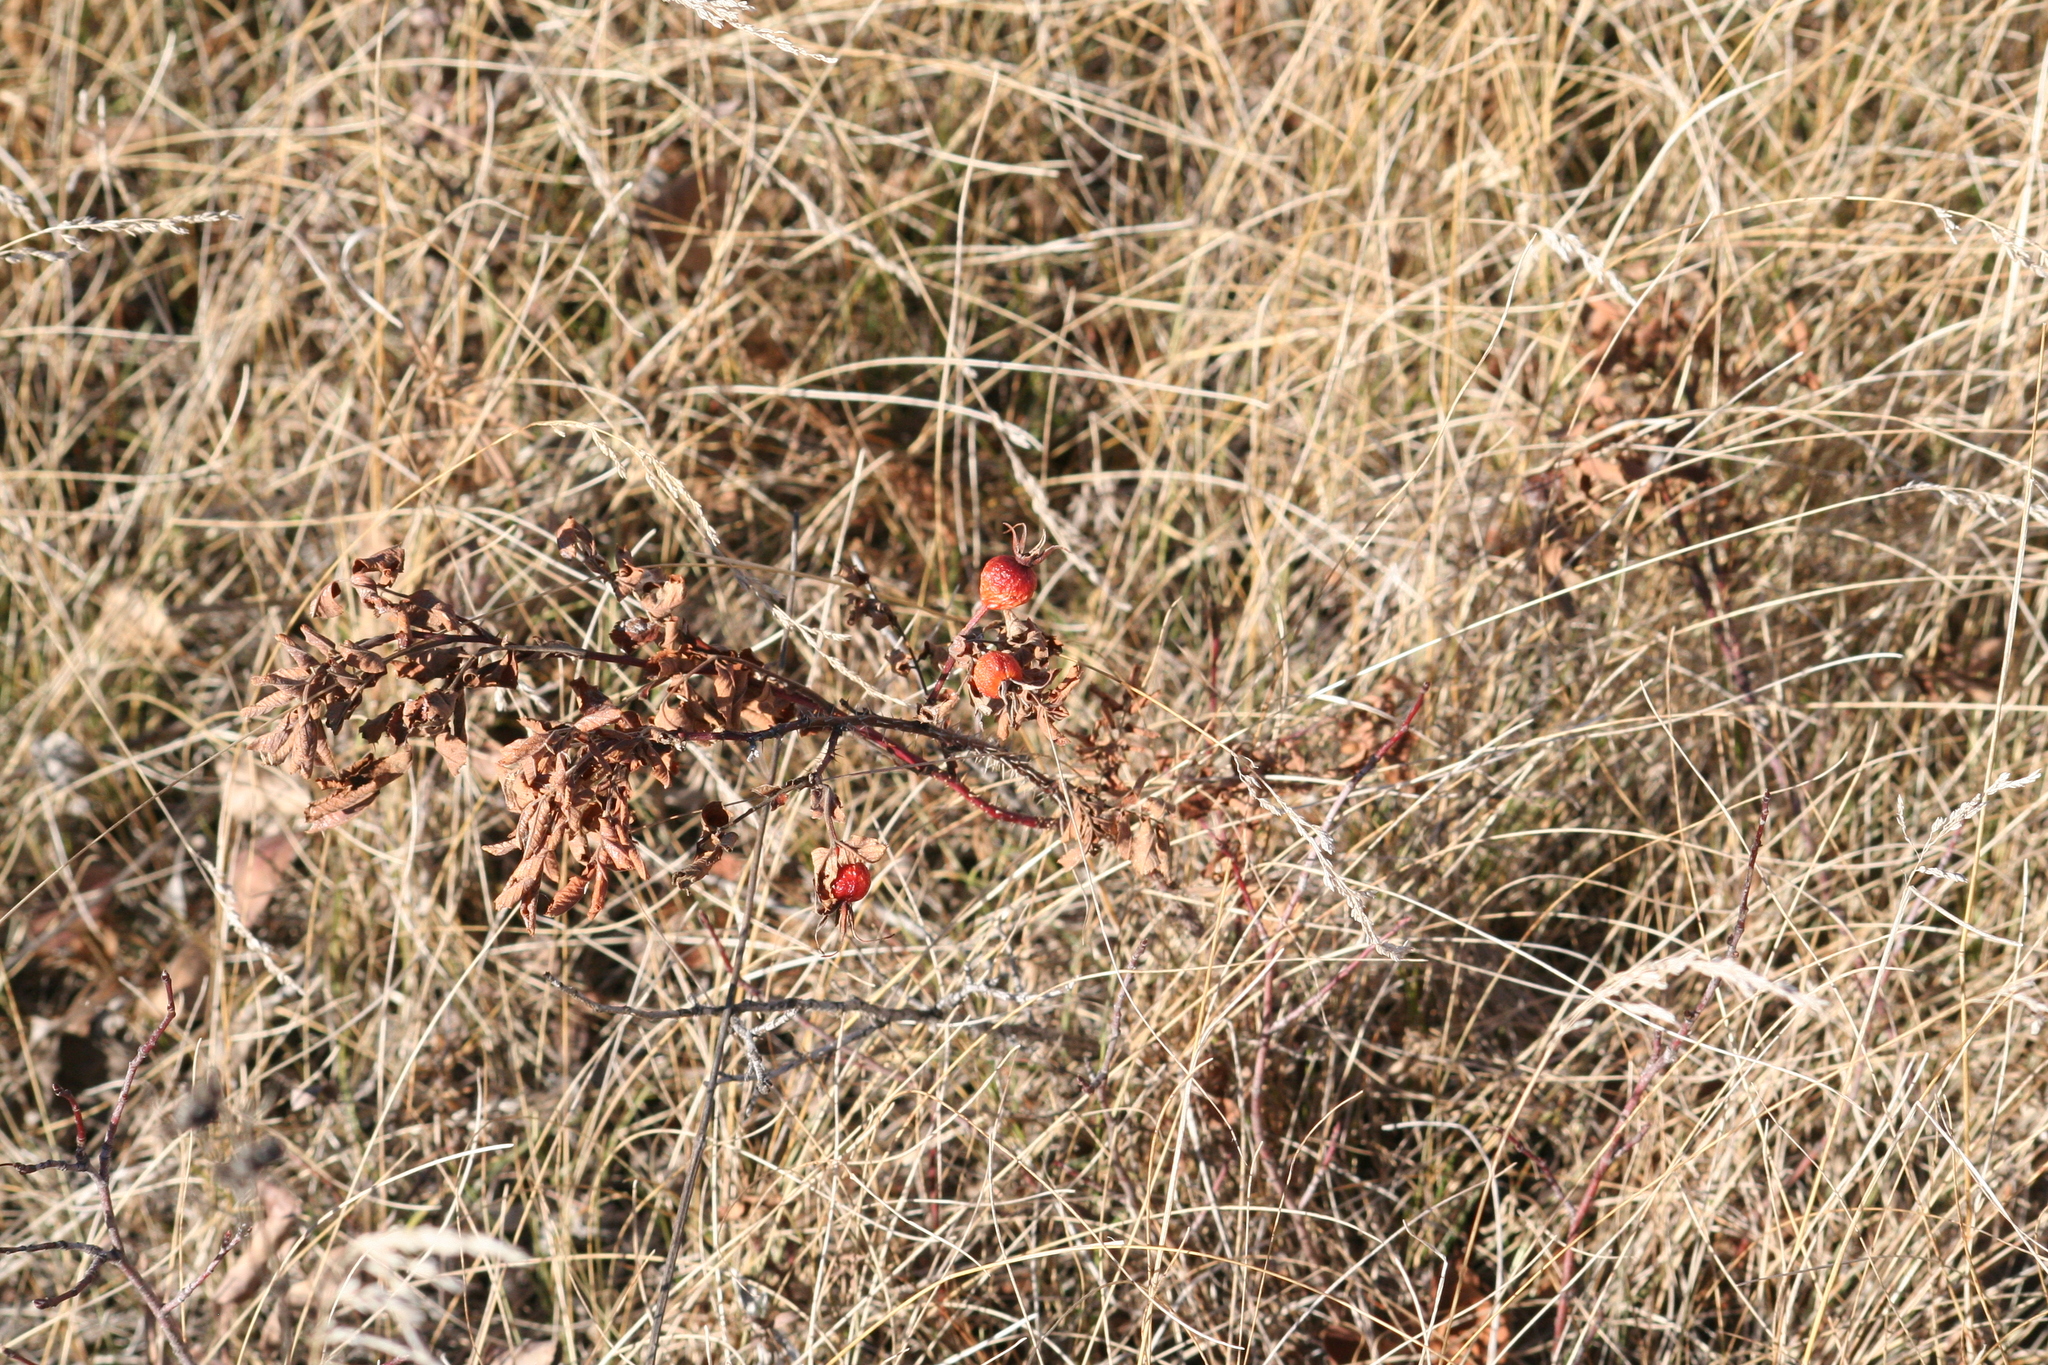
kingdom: Plantae
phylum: Tracheophyta
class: Magnoliopsida
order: Rosales
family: Rosaceae
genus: Rosa
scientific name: Rosa woodsii
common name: Woods's rose
